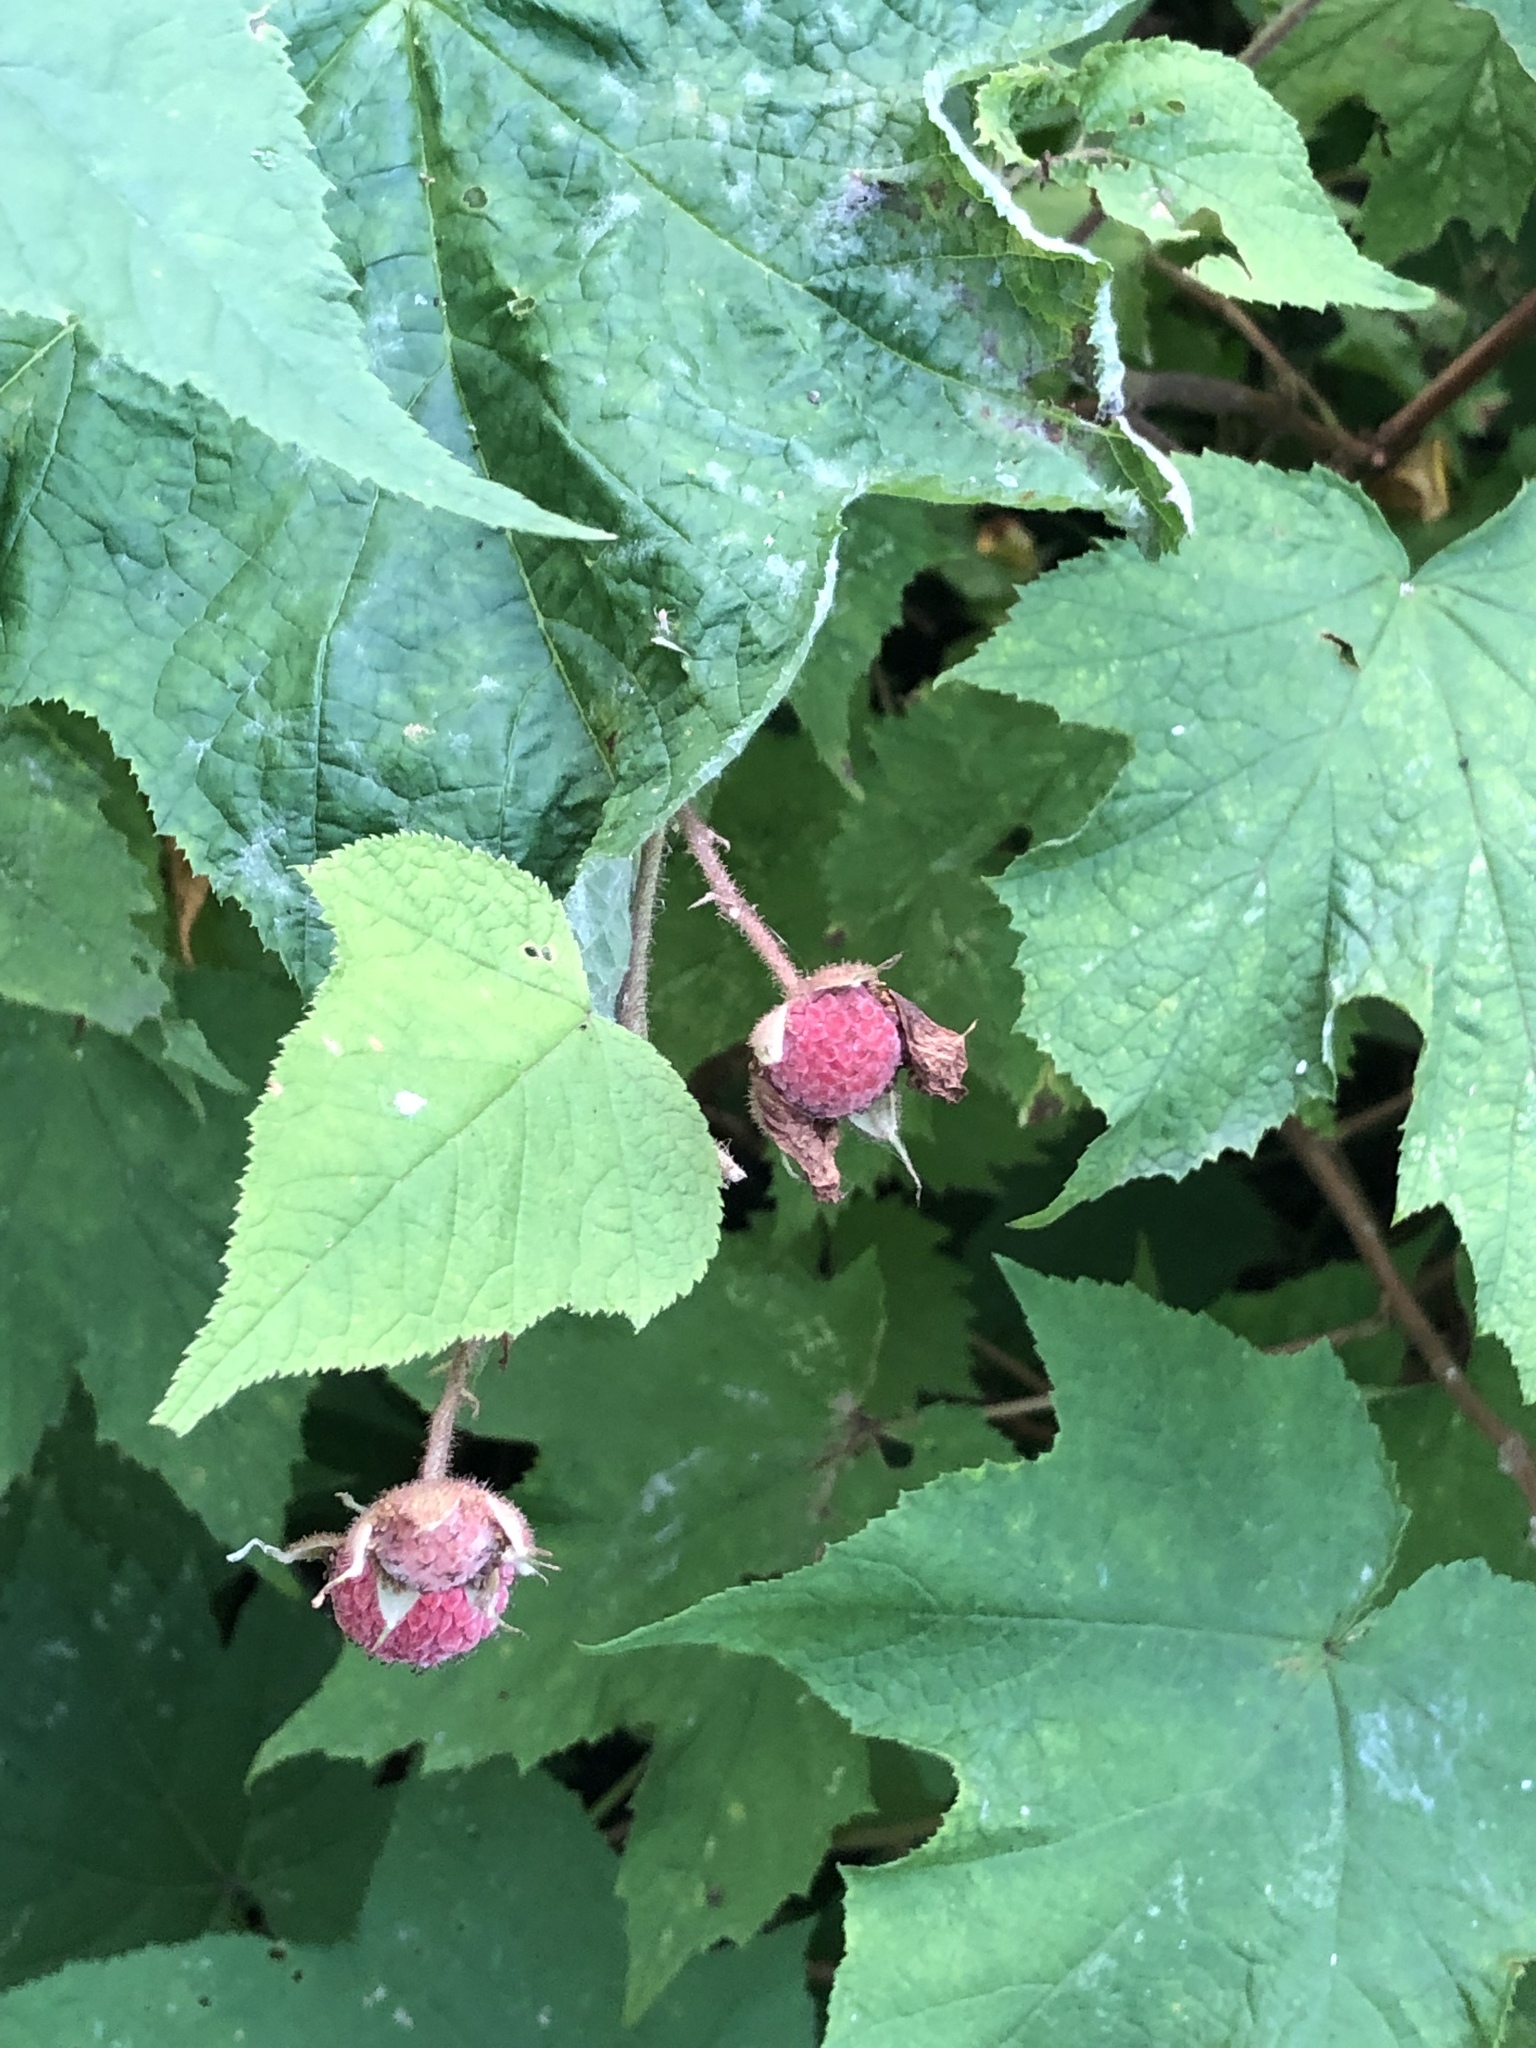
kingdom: Plantae
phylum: Tracheophyta
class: Magnoliopsida
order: Rosales
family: Rosaceae
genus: Rubus
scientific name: Rubus odoratus
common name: Purple-flowered raspberry
